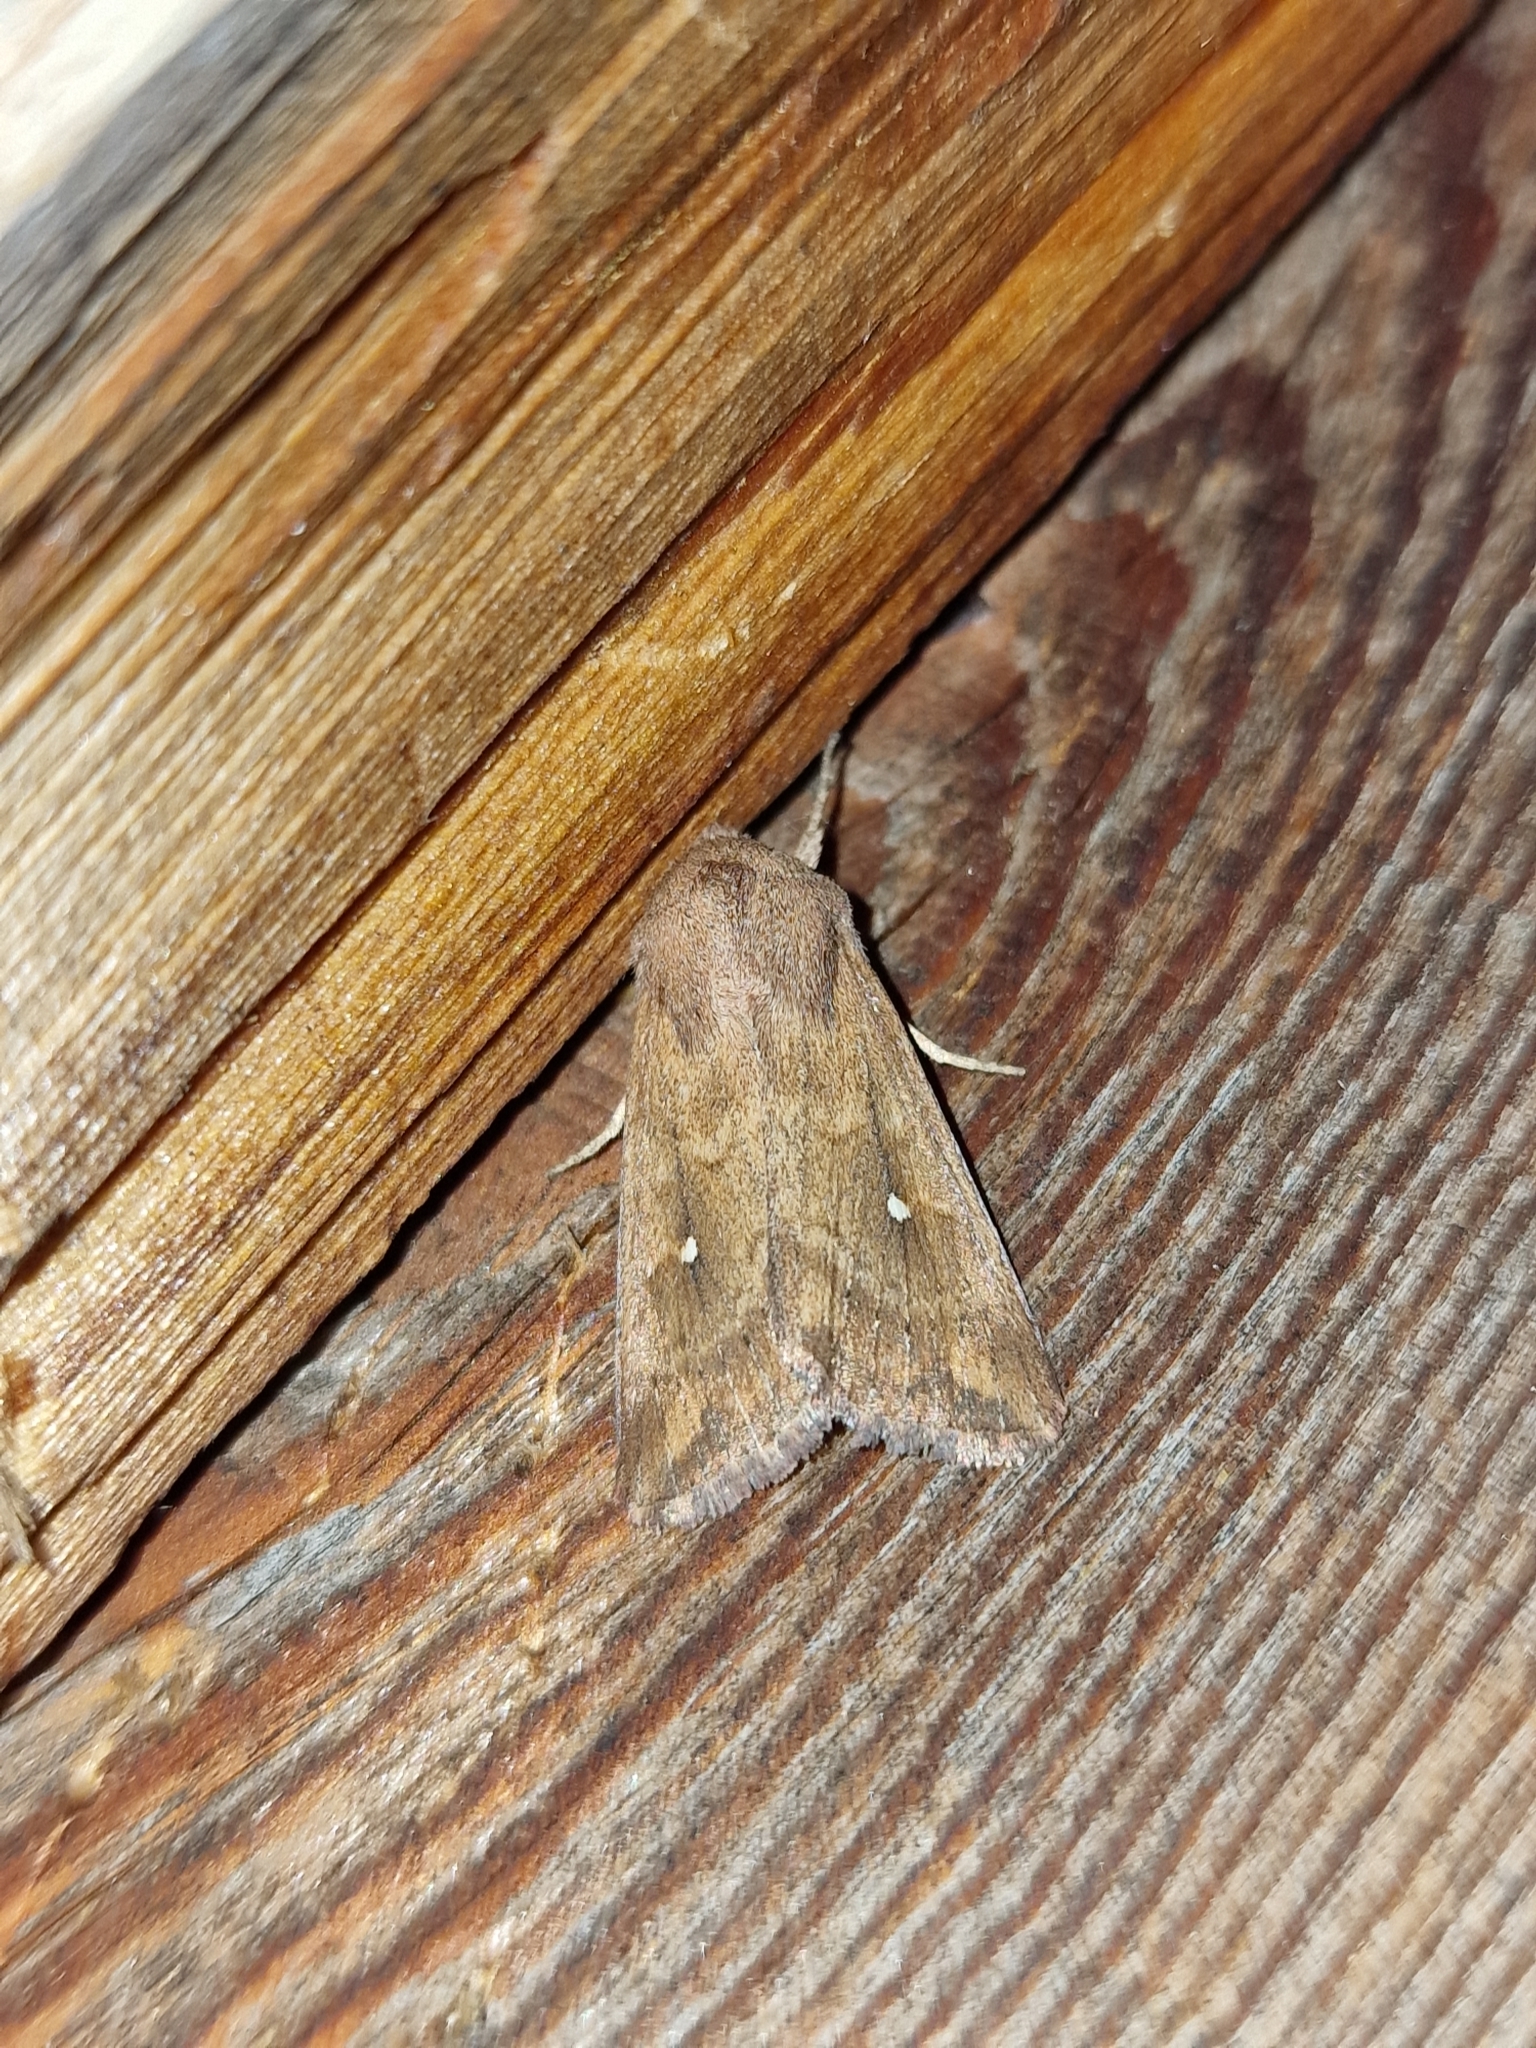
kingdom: Animalia
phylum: Arthropoda
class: Insecta
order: Lepidoptera
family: Noctuidae
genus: Mythimna
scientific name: Mythimna albipuncta
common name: White-point
